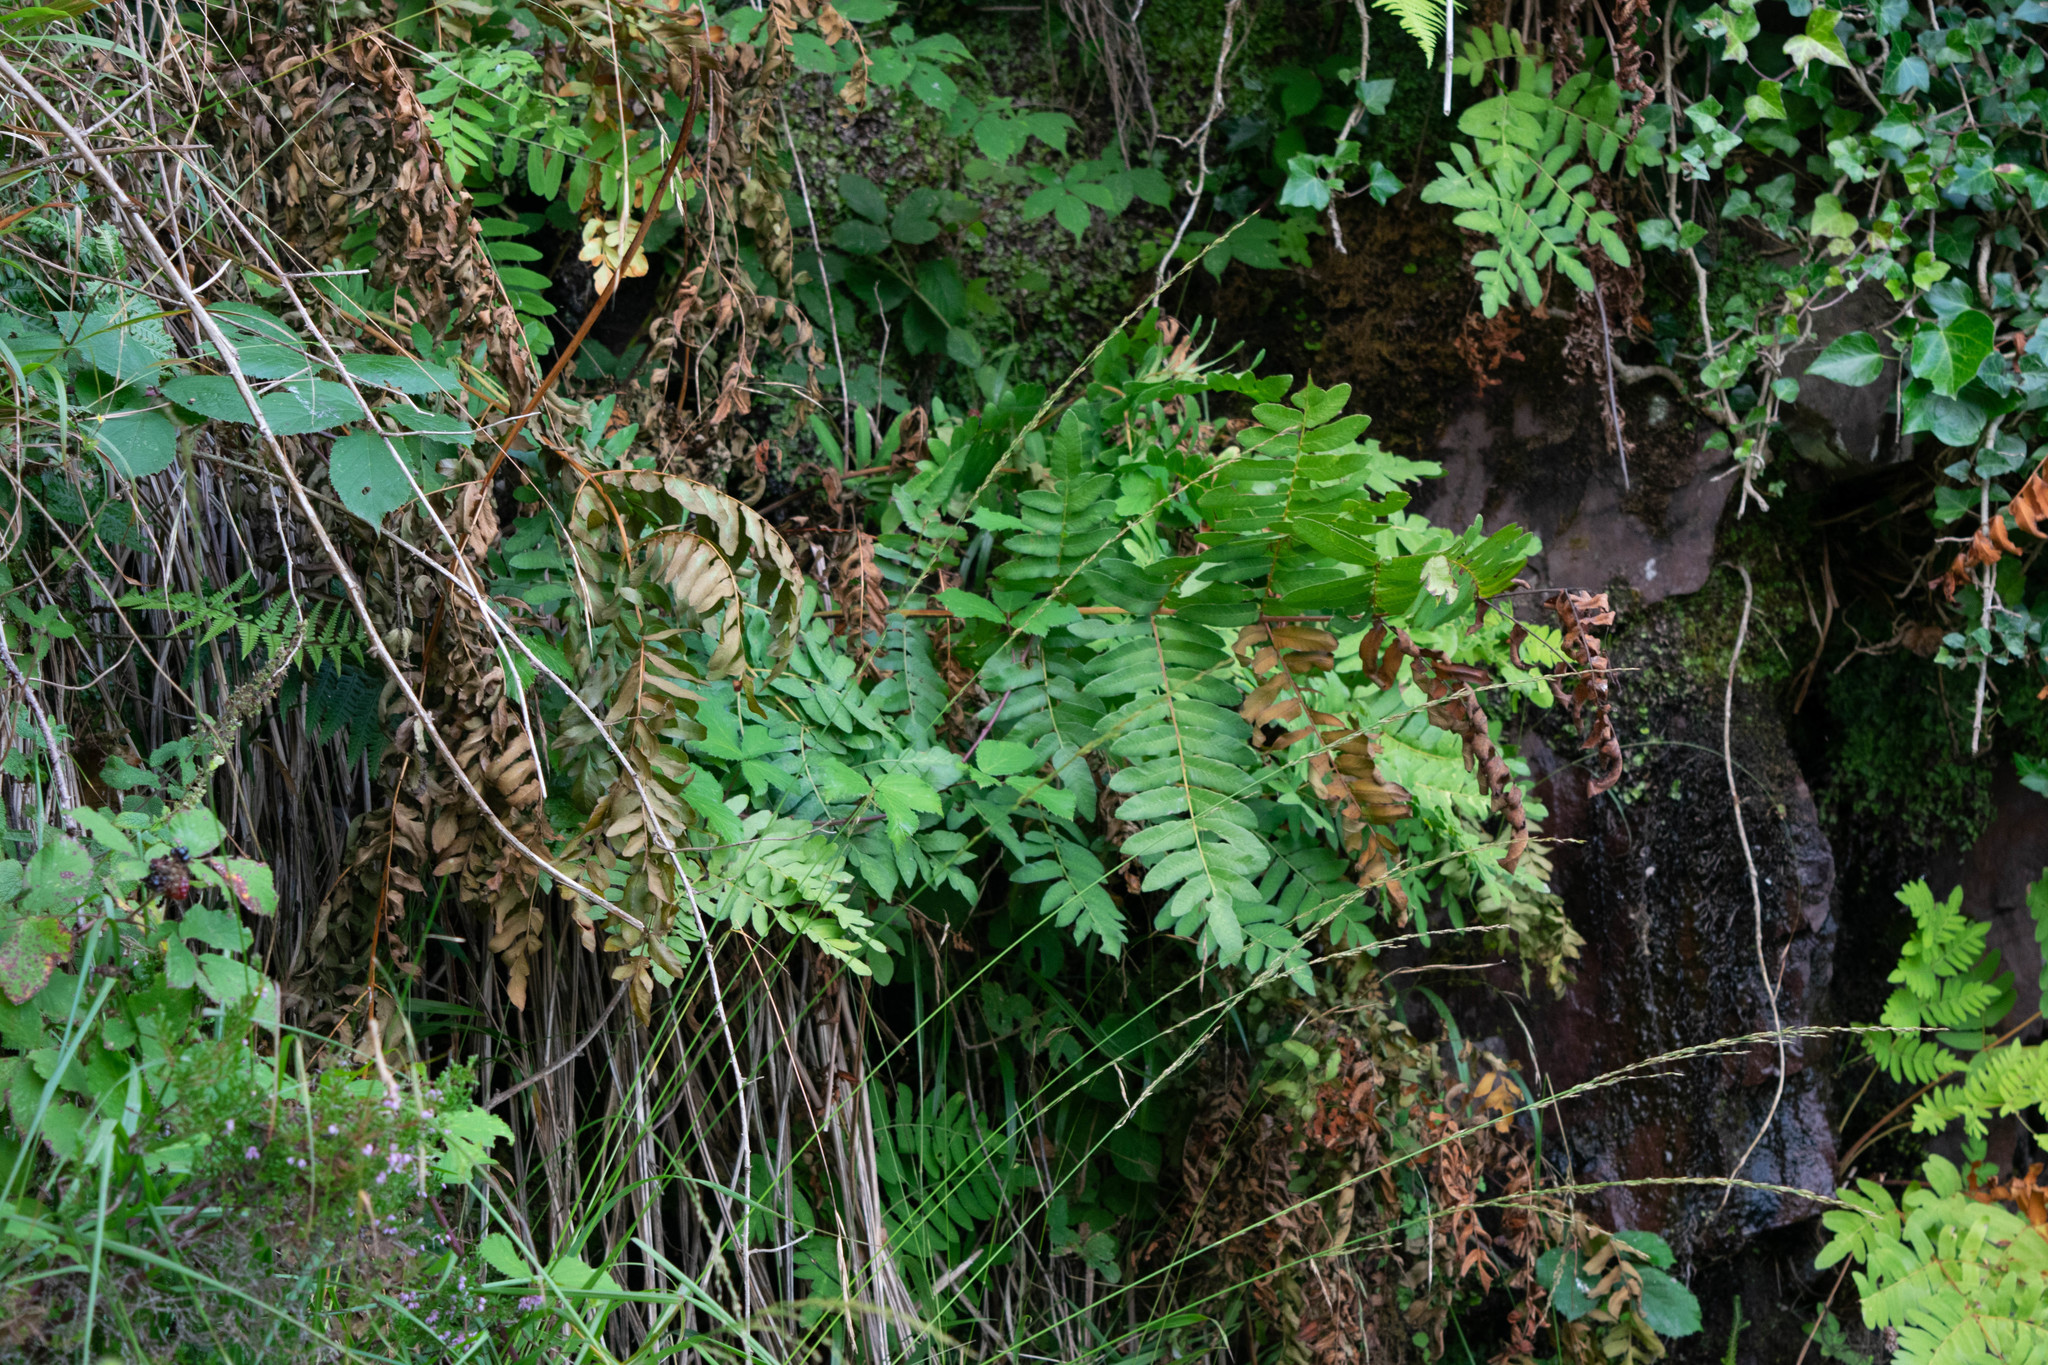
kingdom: Plantae
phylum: Tracheophyta
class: Polypodiopsida
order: Osmundales
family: Osmundaceae
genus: Osmunda
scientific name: Osmunda regalis
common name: Royal fern
